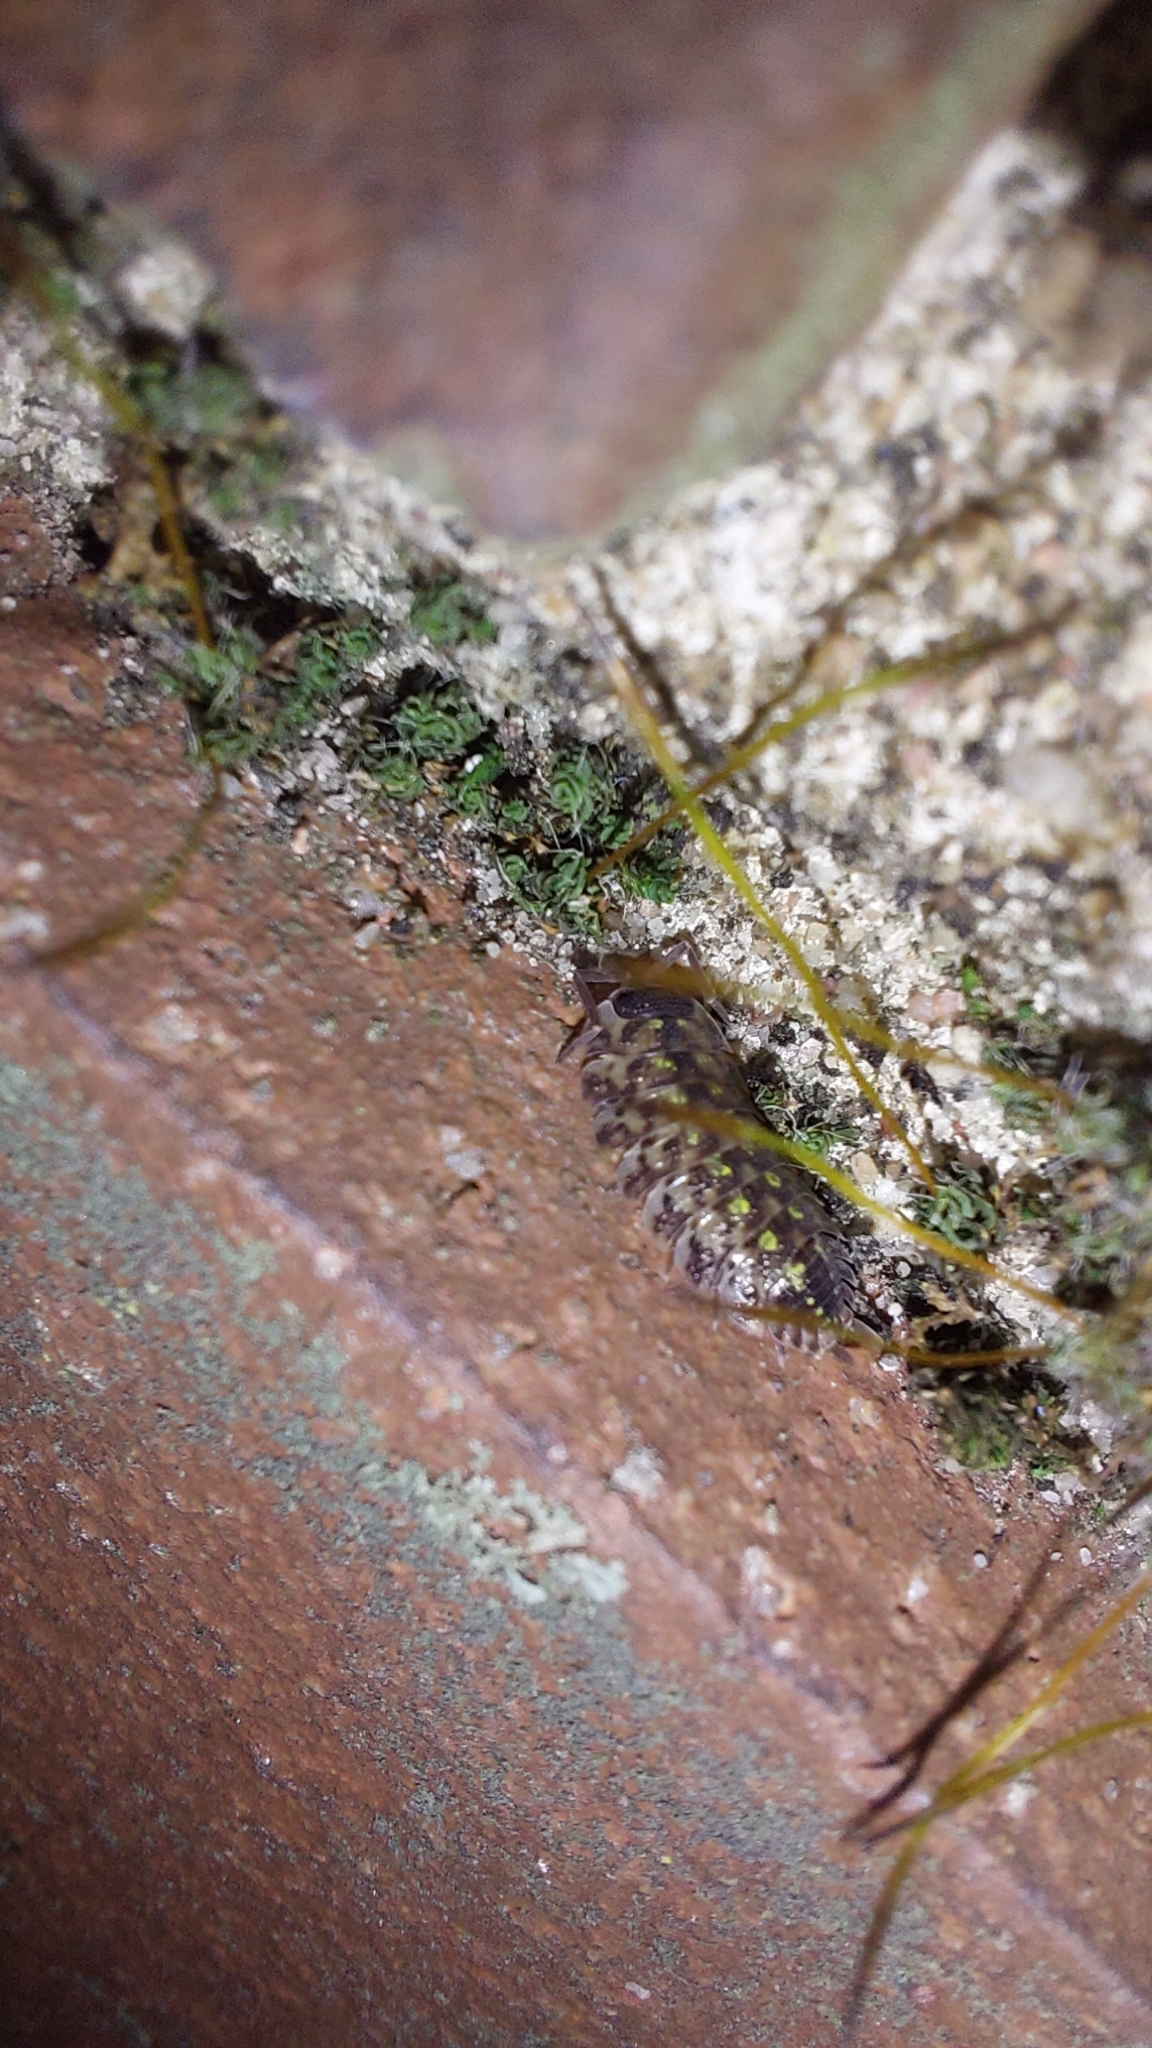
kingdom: Animalia
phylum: Arthropoda
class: Malacostraca
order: Isopoda
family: Porcellionidae
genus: Porcellio
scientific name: Porcellio spinicornis
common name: Painted woodlouse
